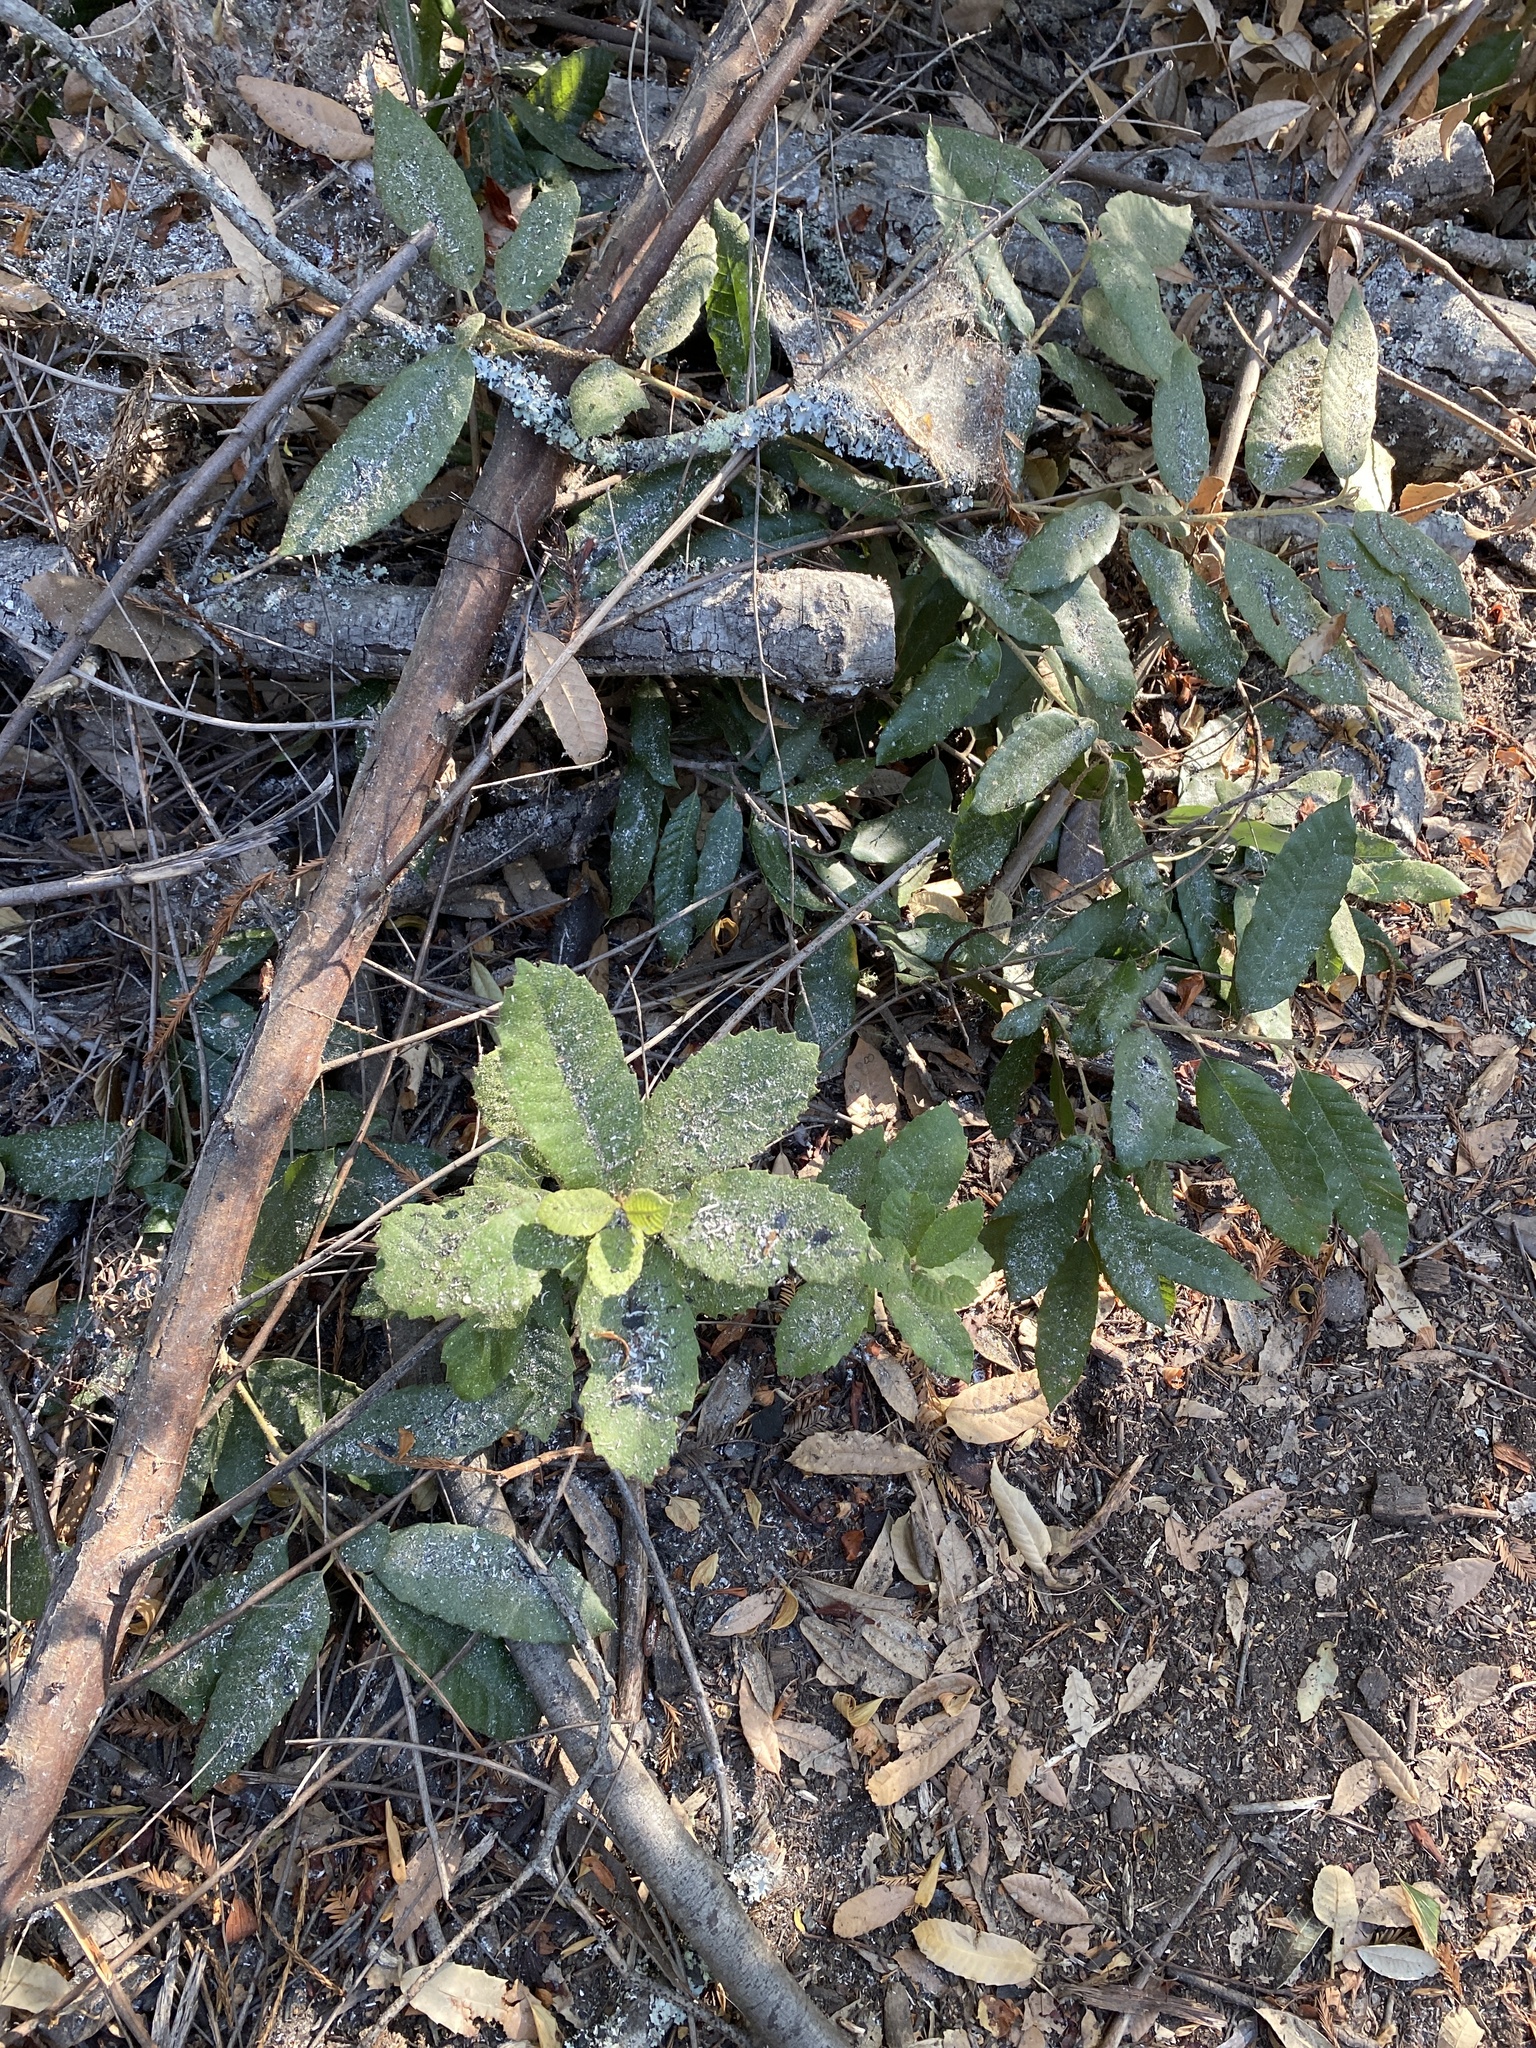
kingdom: Plantae
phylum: Tracheophyta
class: Magnoliopsida
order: Fagales
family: Fagaceae
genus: Notholithocarpus
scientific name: Notholithocarpus densiflorus
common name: Tan bark oak
